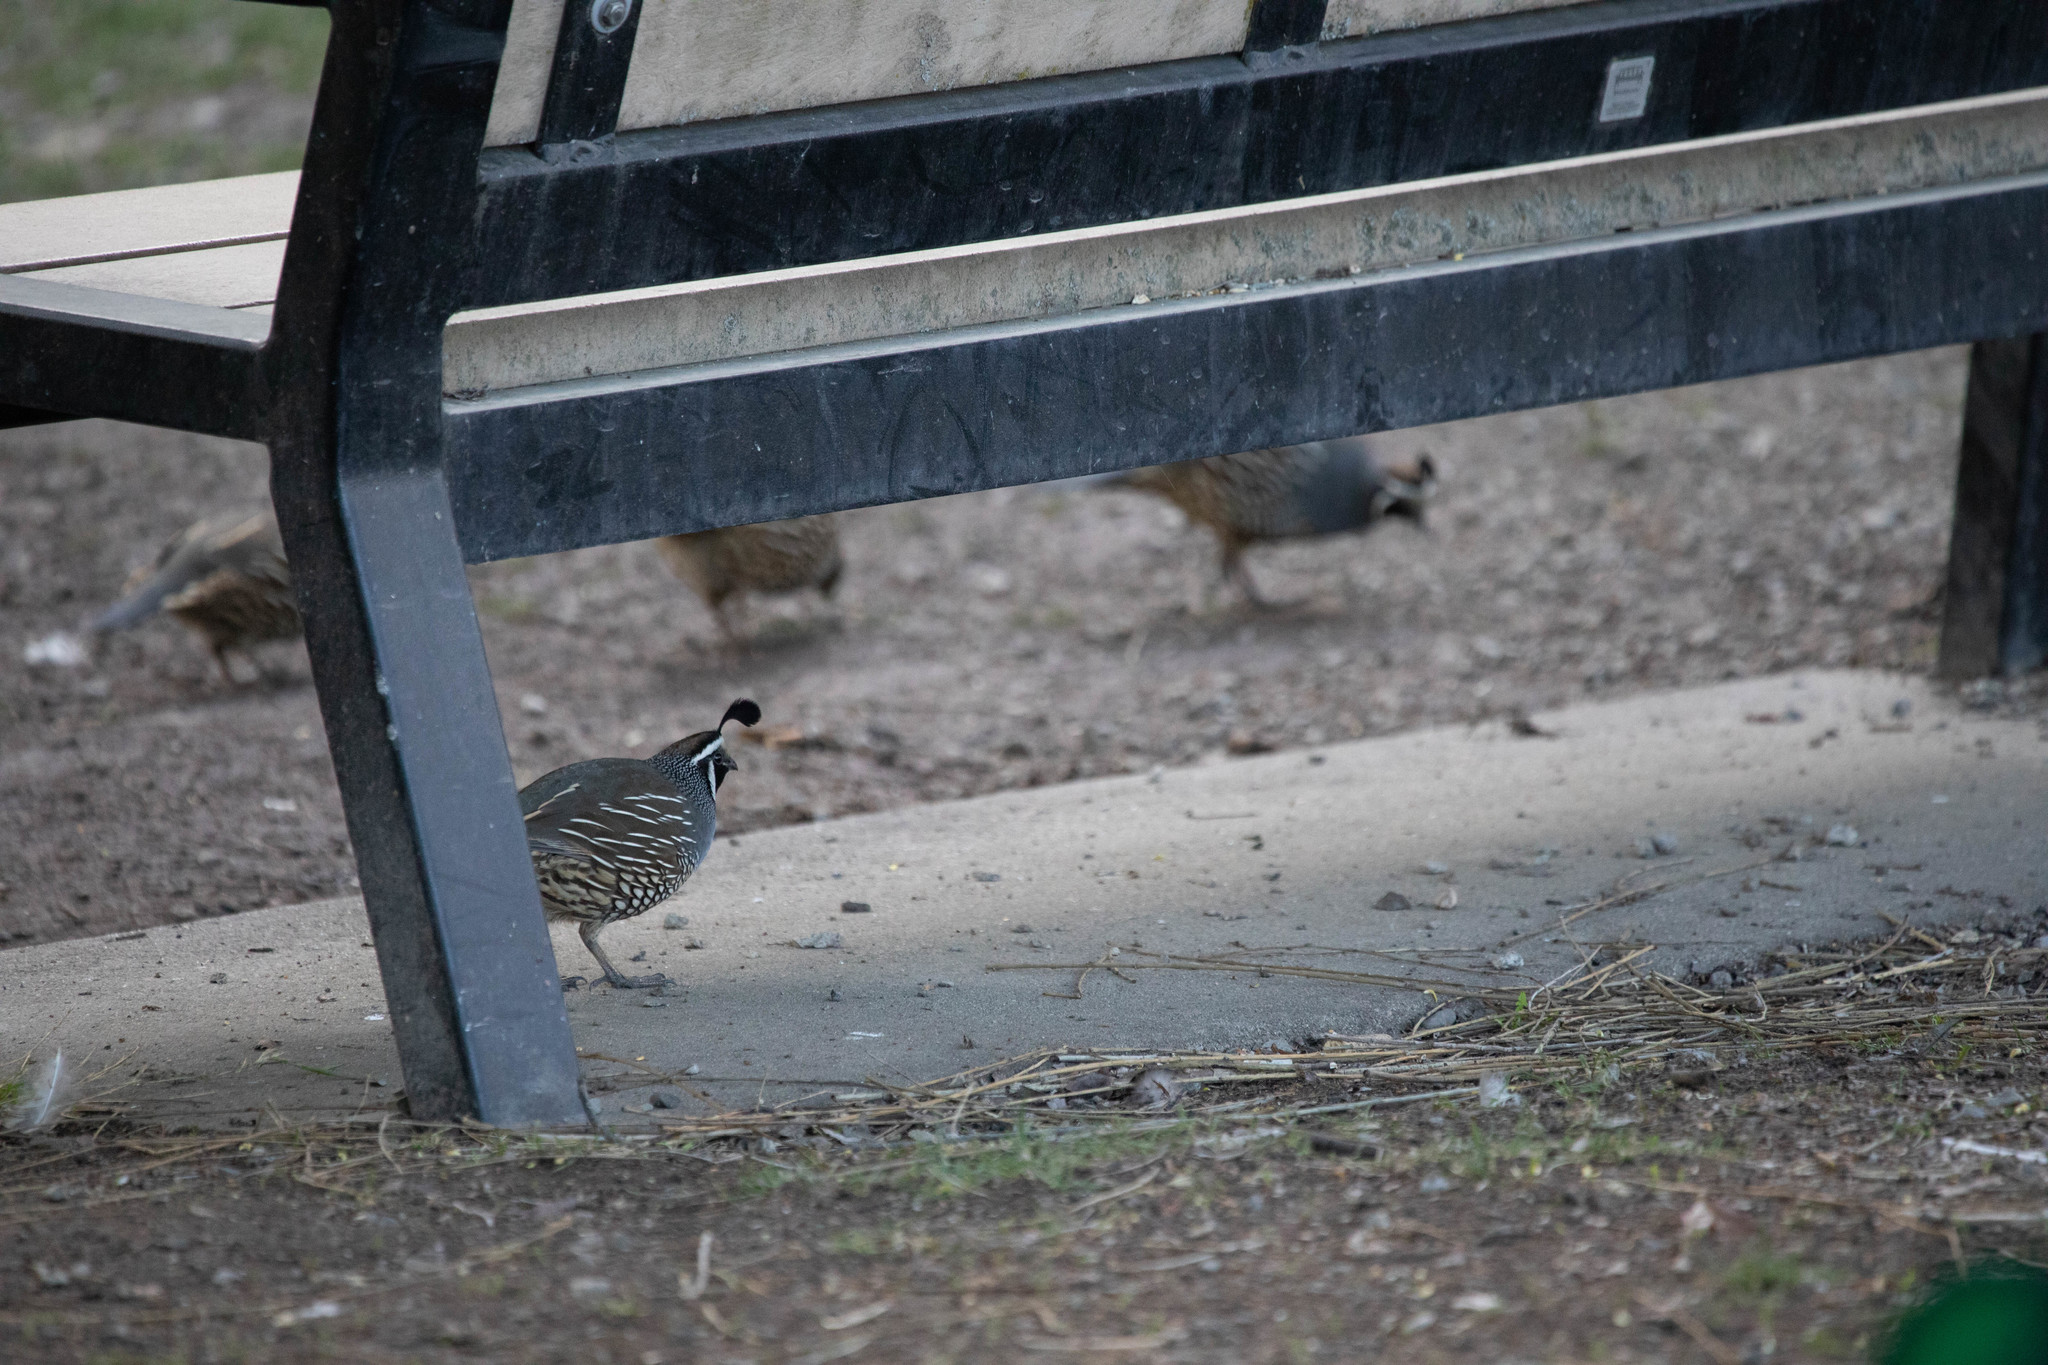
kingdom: Animalia
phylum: Chordata
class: Aves
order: Galliformes
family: Odontophoridae
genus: Callipepla
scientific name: Callipepla californica
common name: California quail
